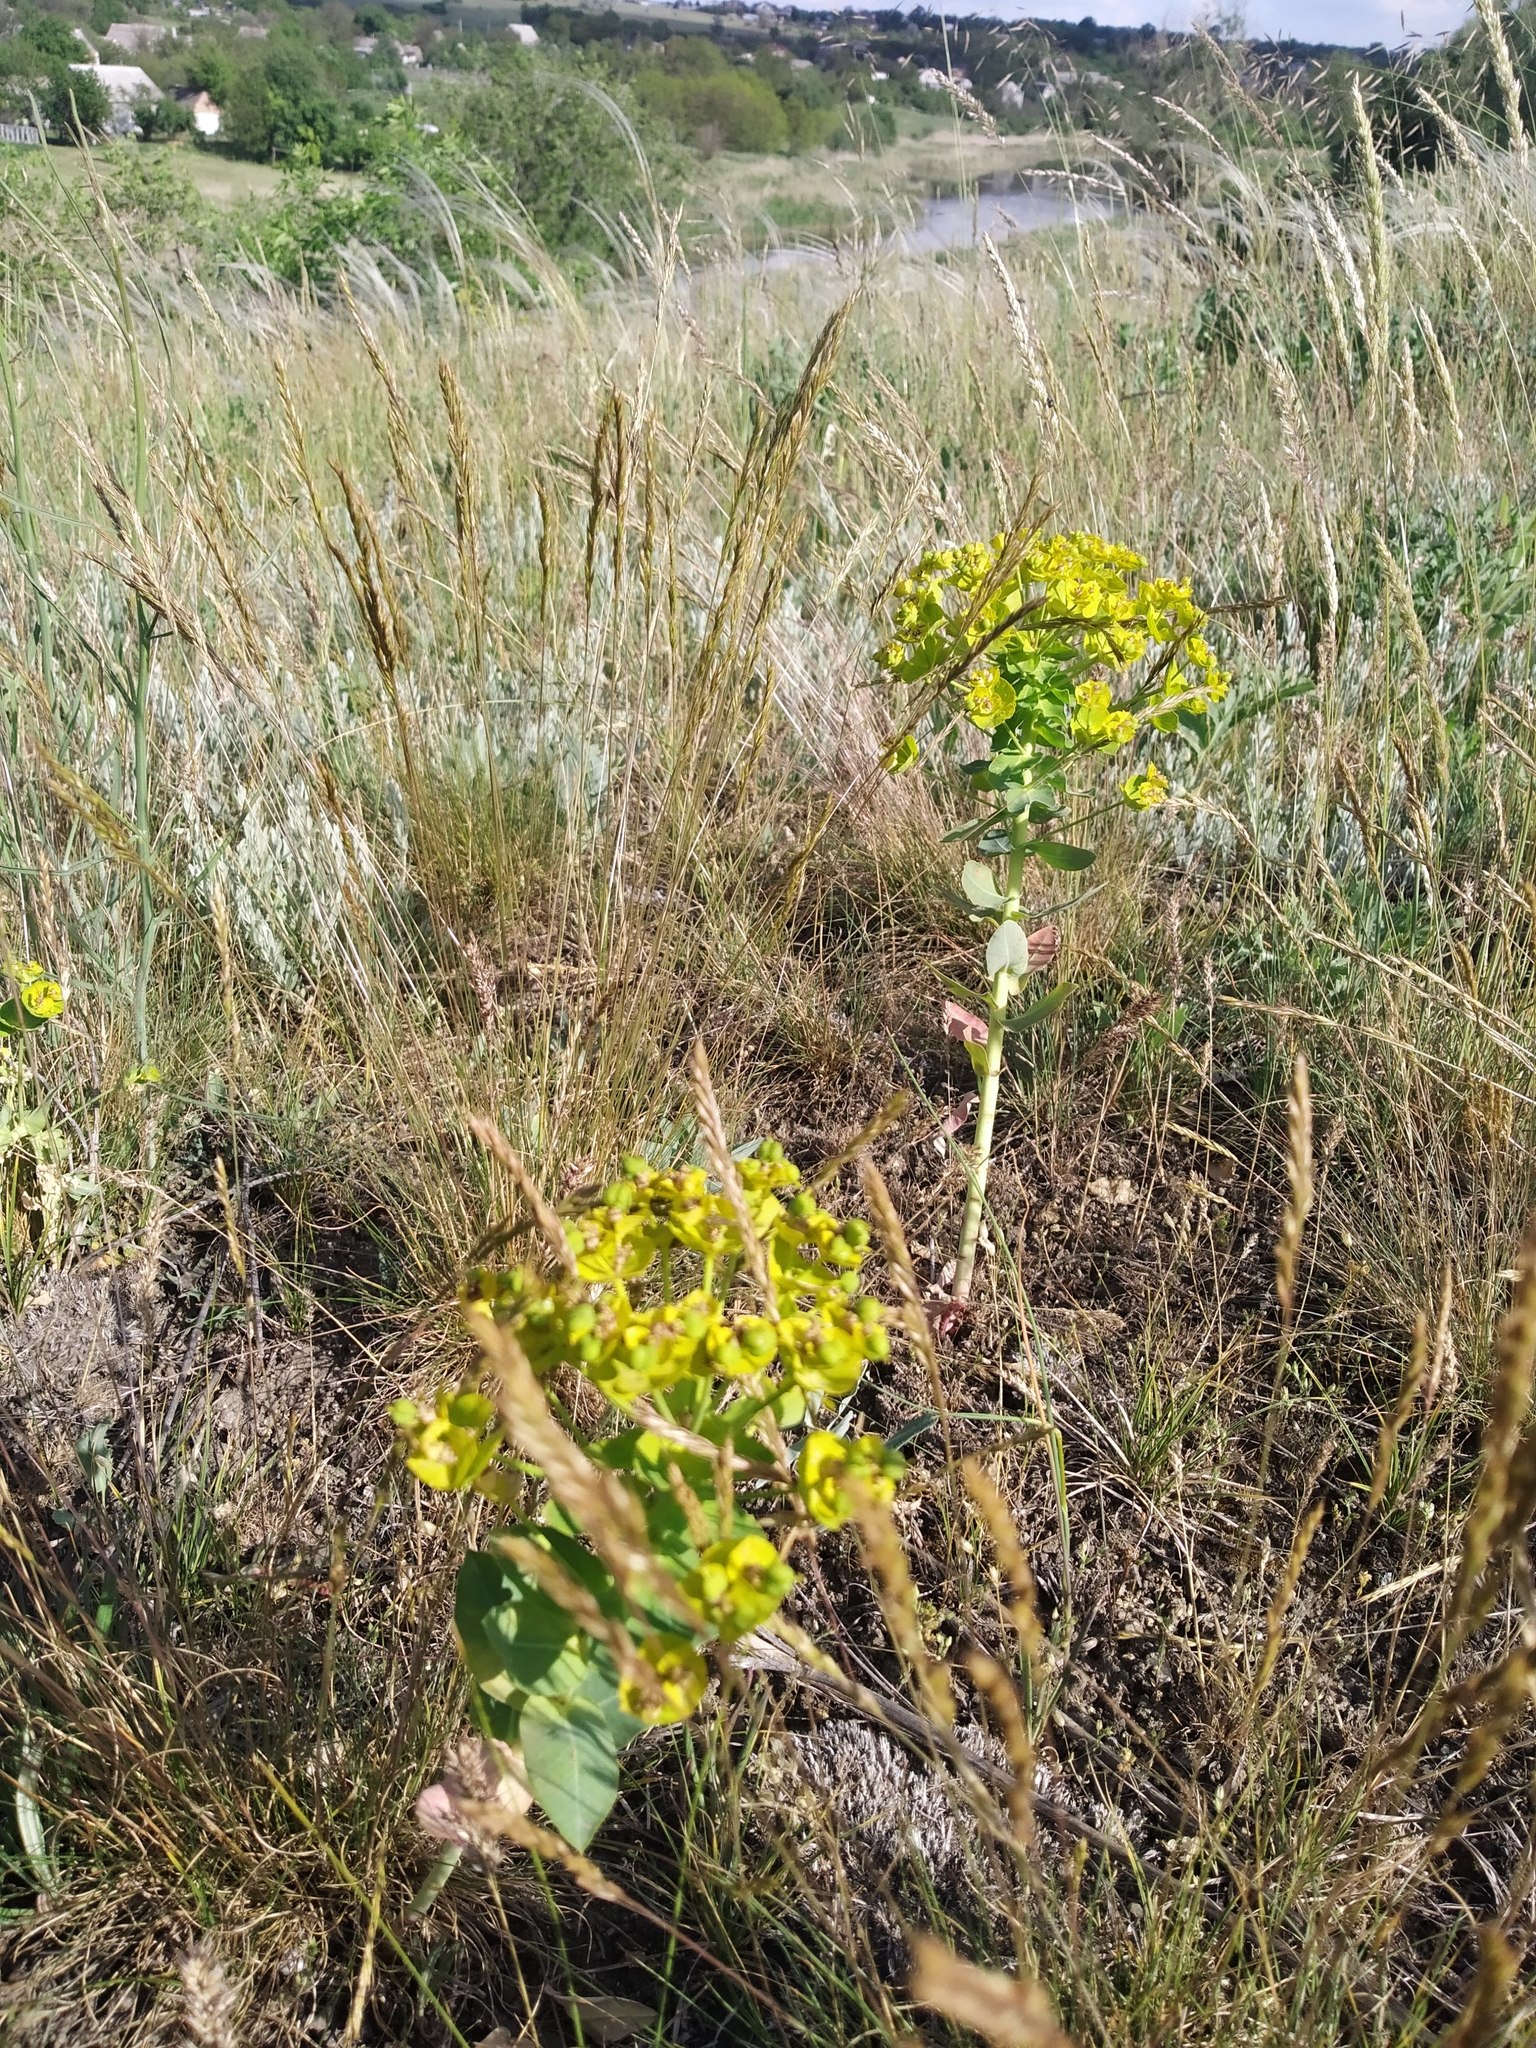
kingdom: Plantae
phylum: Tracheophyta
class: Magnoliopsida
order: Malpighiales
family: Euphorbiaceae
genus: Euphorbia
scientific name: Euphorbia agraria
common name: Urban spurge
